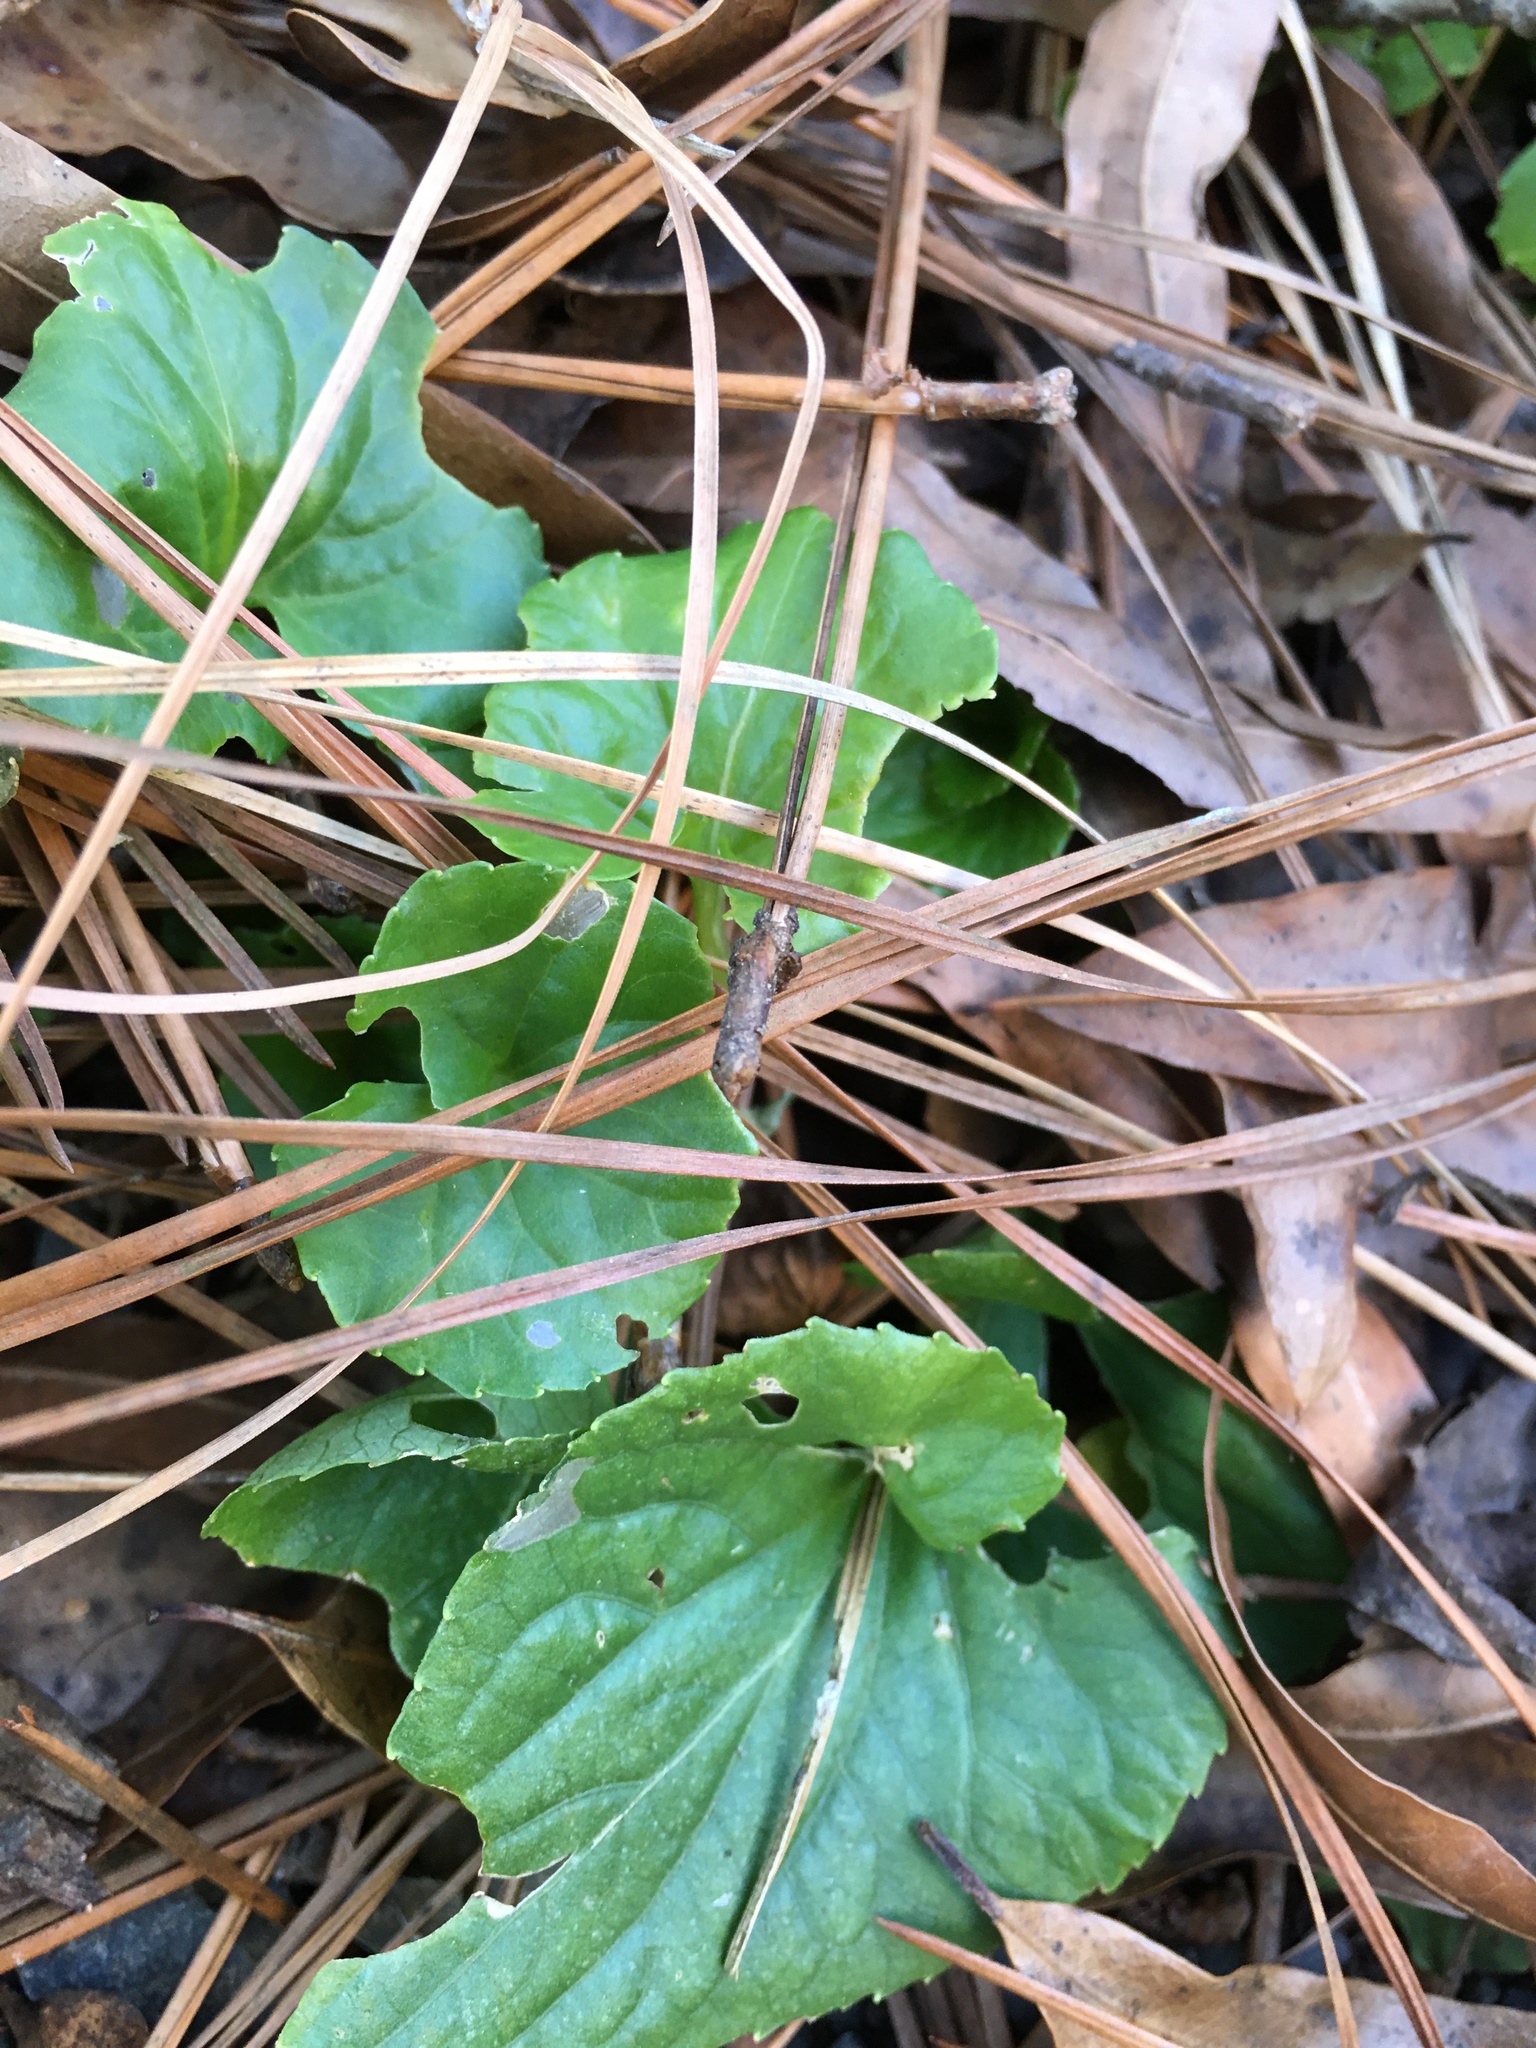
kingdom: Plantae
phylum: Tracheophyta
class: Magnoliopsida
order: Malpighiales
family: Violaceae
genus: Viola
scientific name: Viola sororia
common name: Dooryard violet
